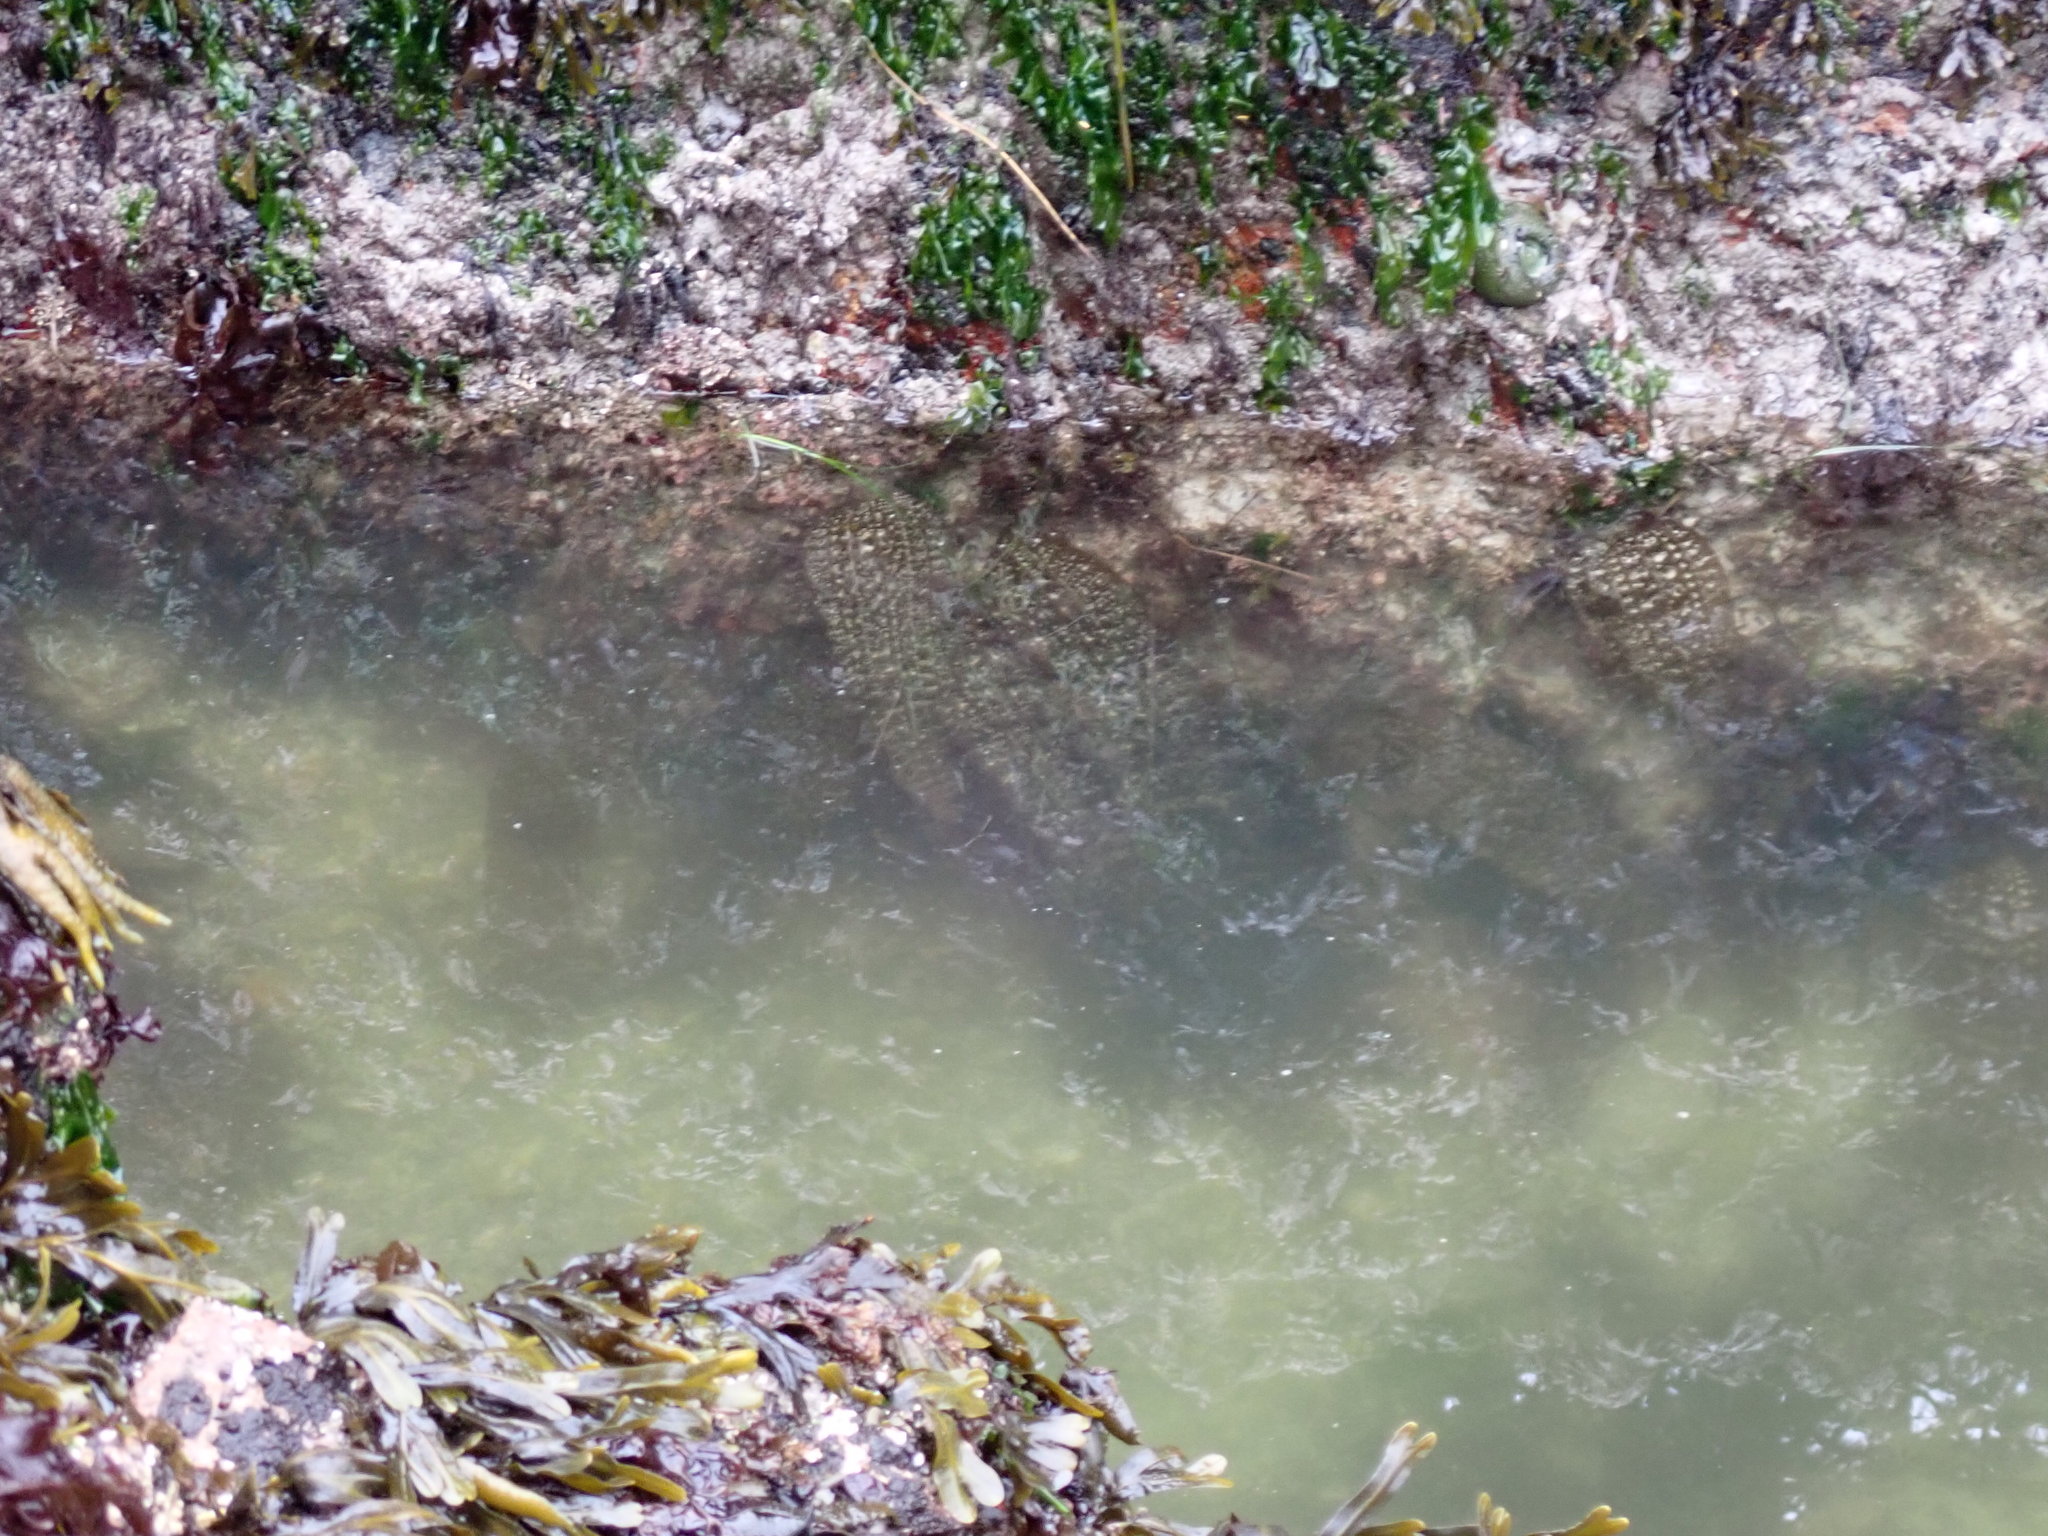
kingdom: Chromista
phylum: Ochrophyta
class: Phaeophyceae
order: Laminariales
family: Costariaceae
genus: Costaria
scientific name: Costaria costata
